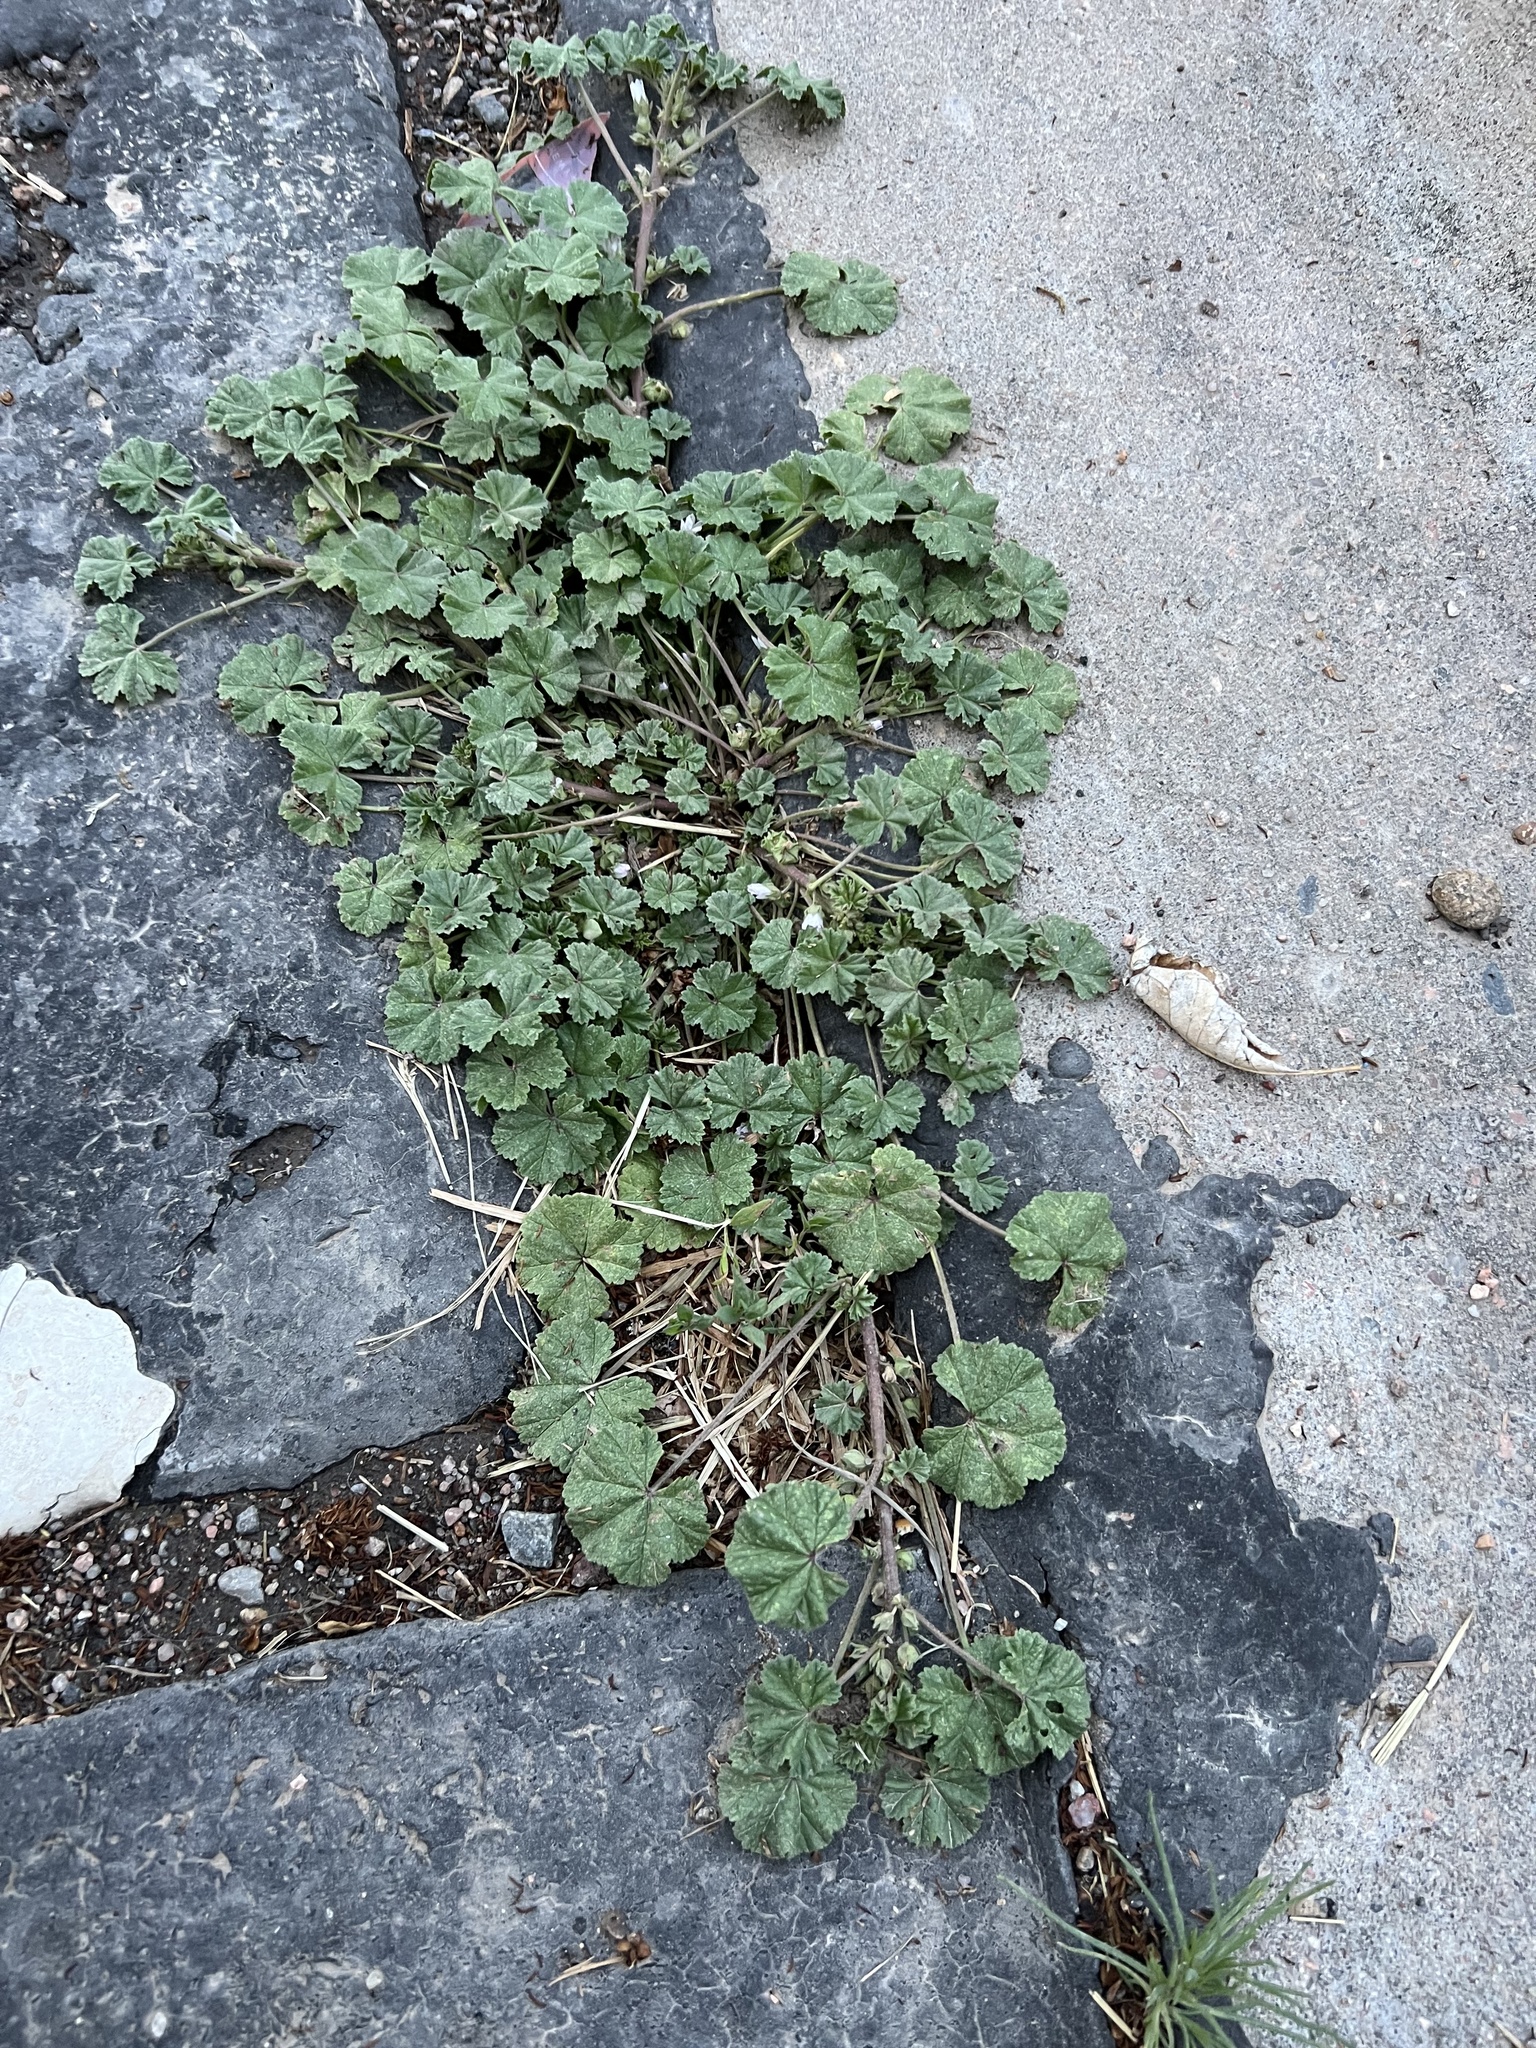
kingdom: Plantae
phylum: Tracheophyta
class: Magnoliopsida
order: Malvales
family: Malvaceae
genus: Malva
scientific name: Malva neglecta
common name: Common mallow
